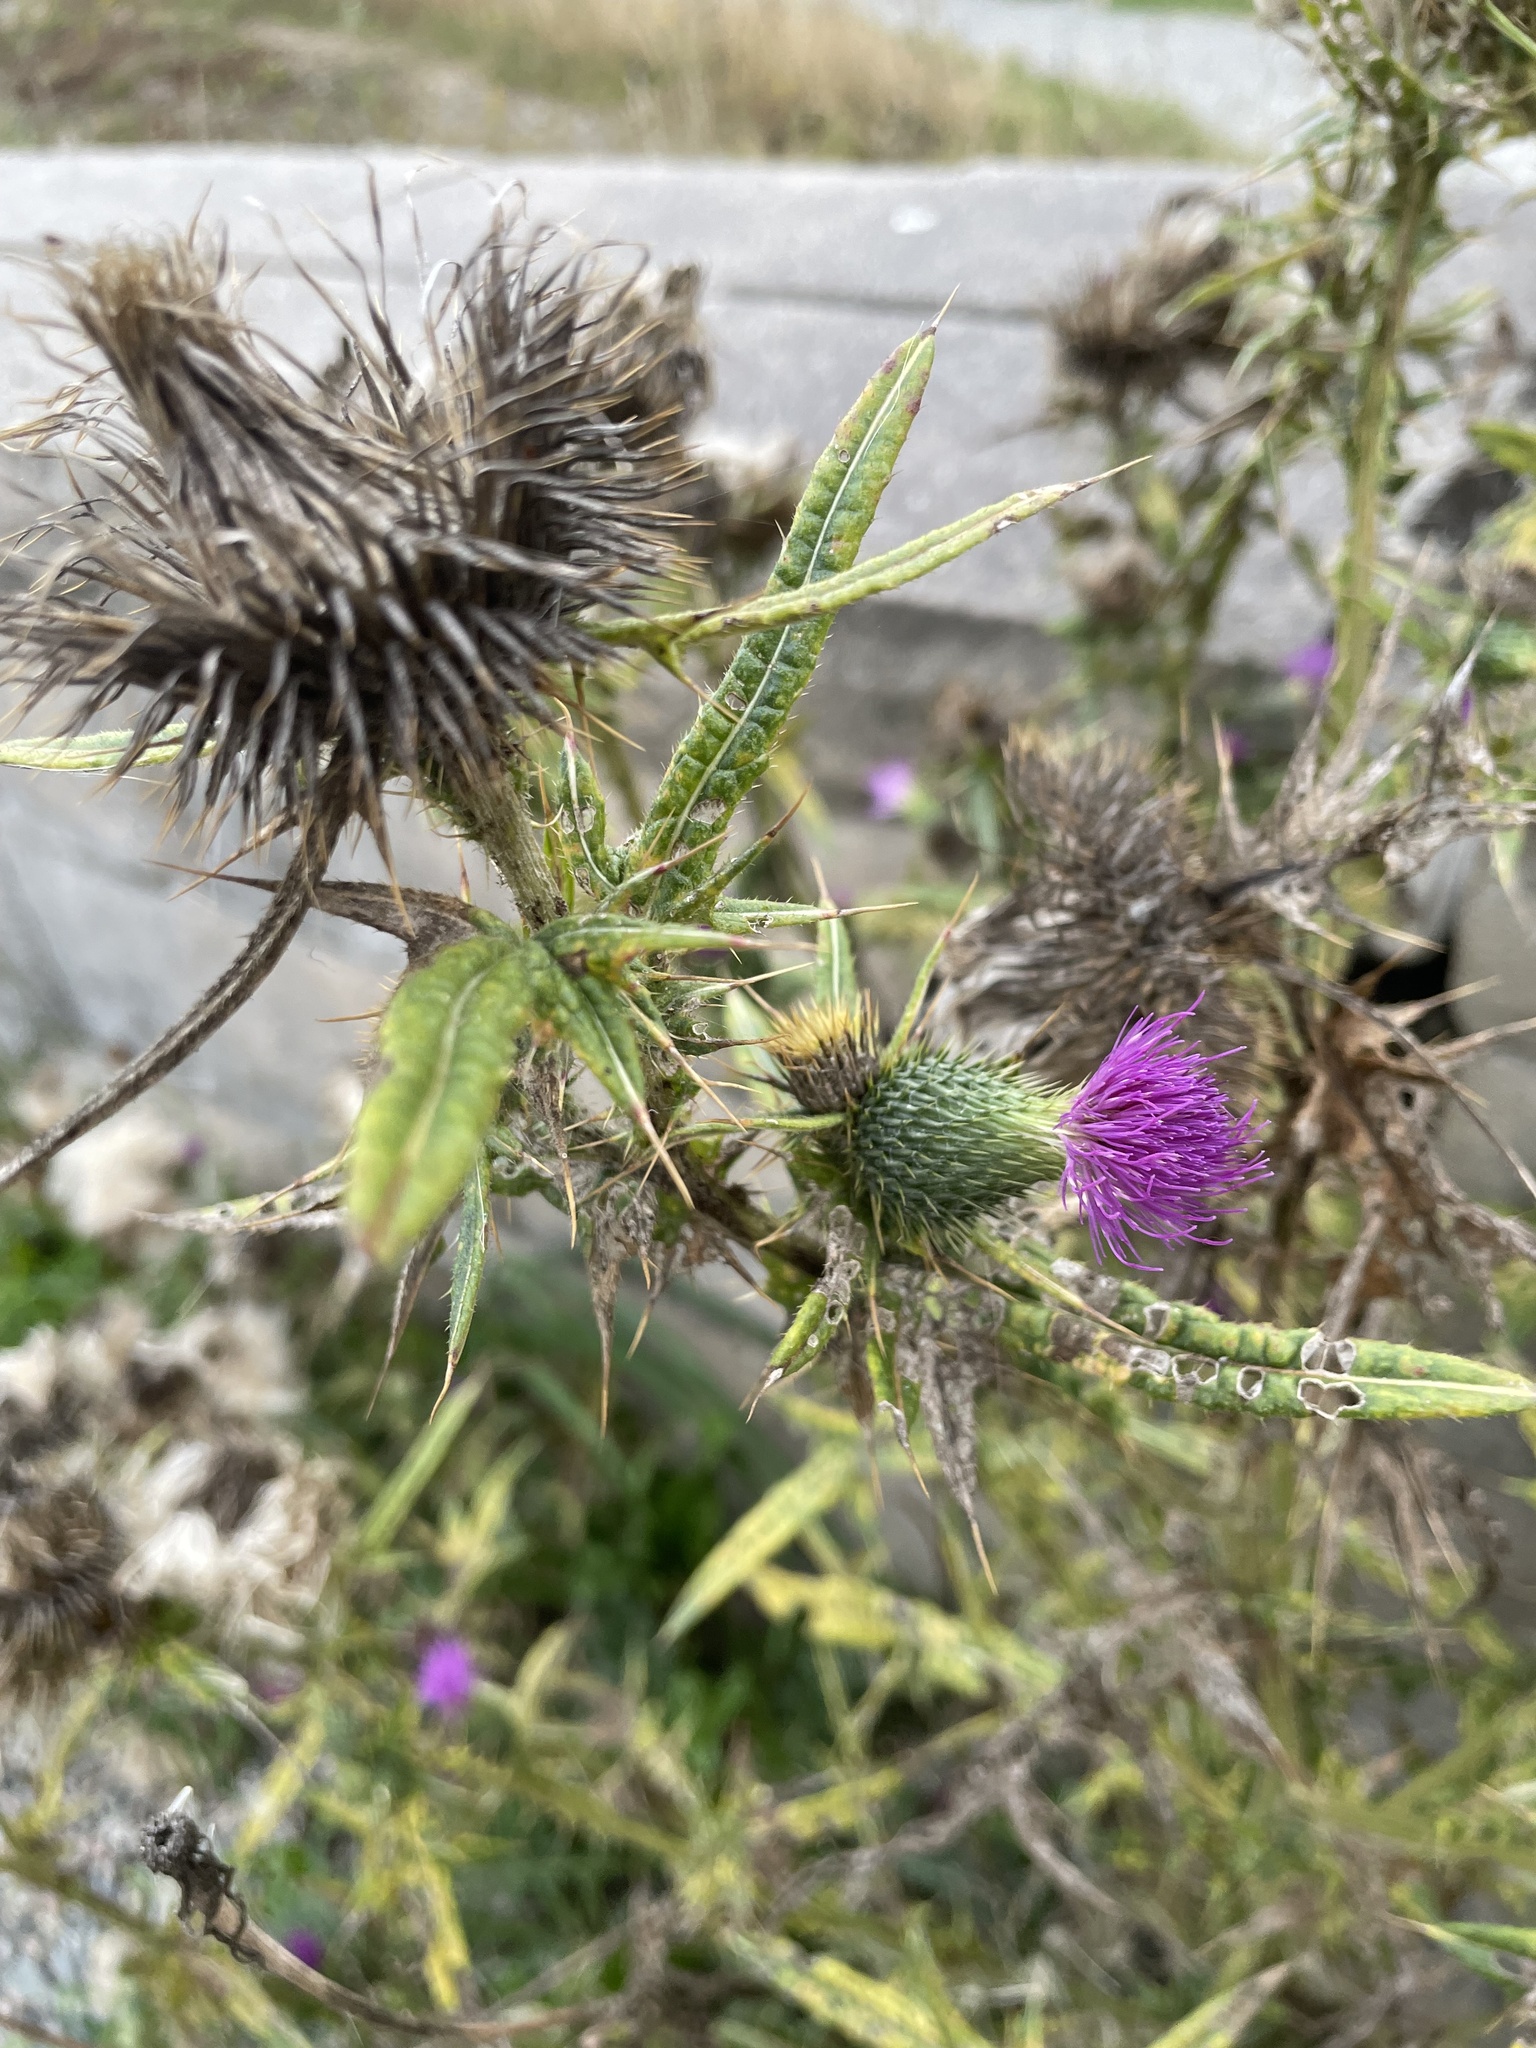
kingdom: Plantae
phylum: Tracheophyta
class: Magnoliopsida
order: Asterales
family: Asteraceae
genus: Cirsium
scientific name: Cirsium vulgare
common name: Bull thistle
